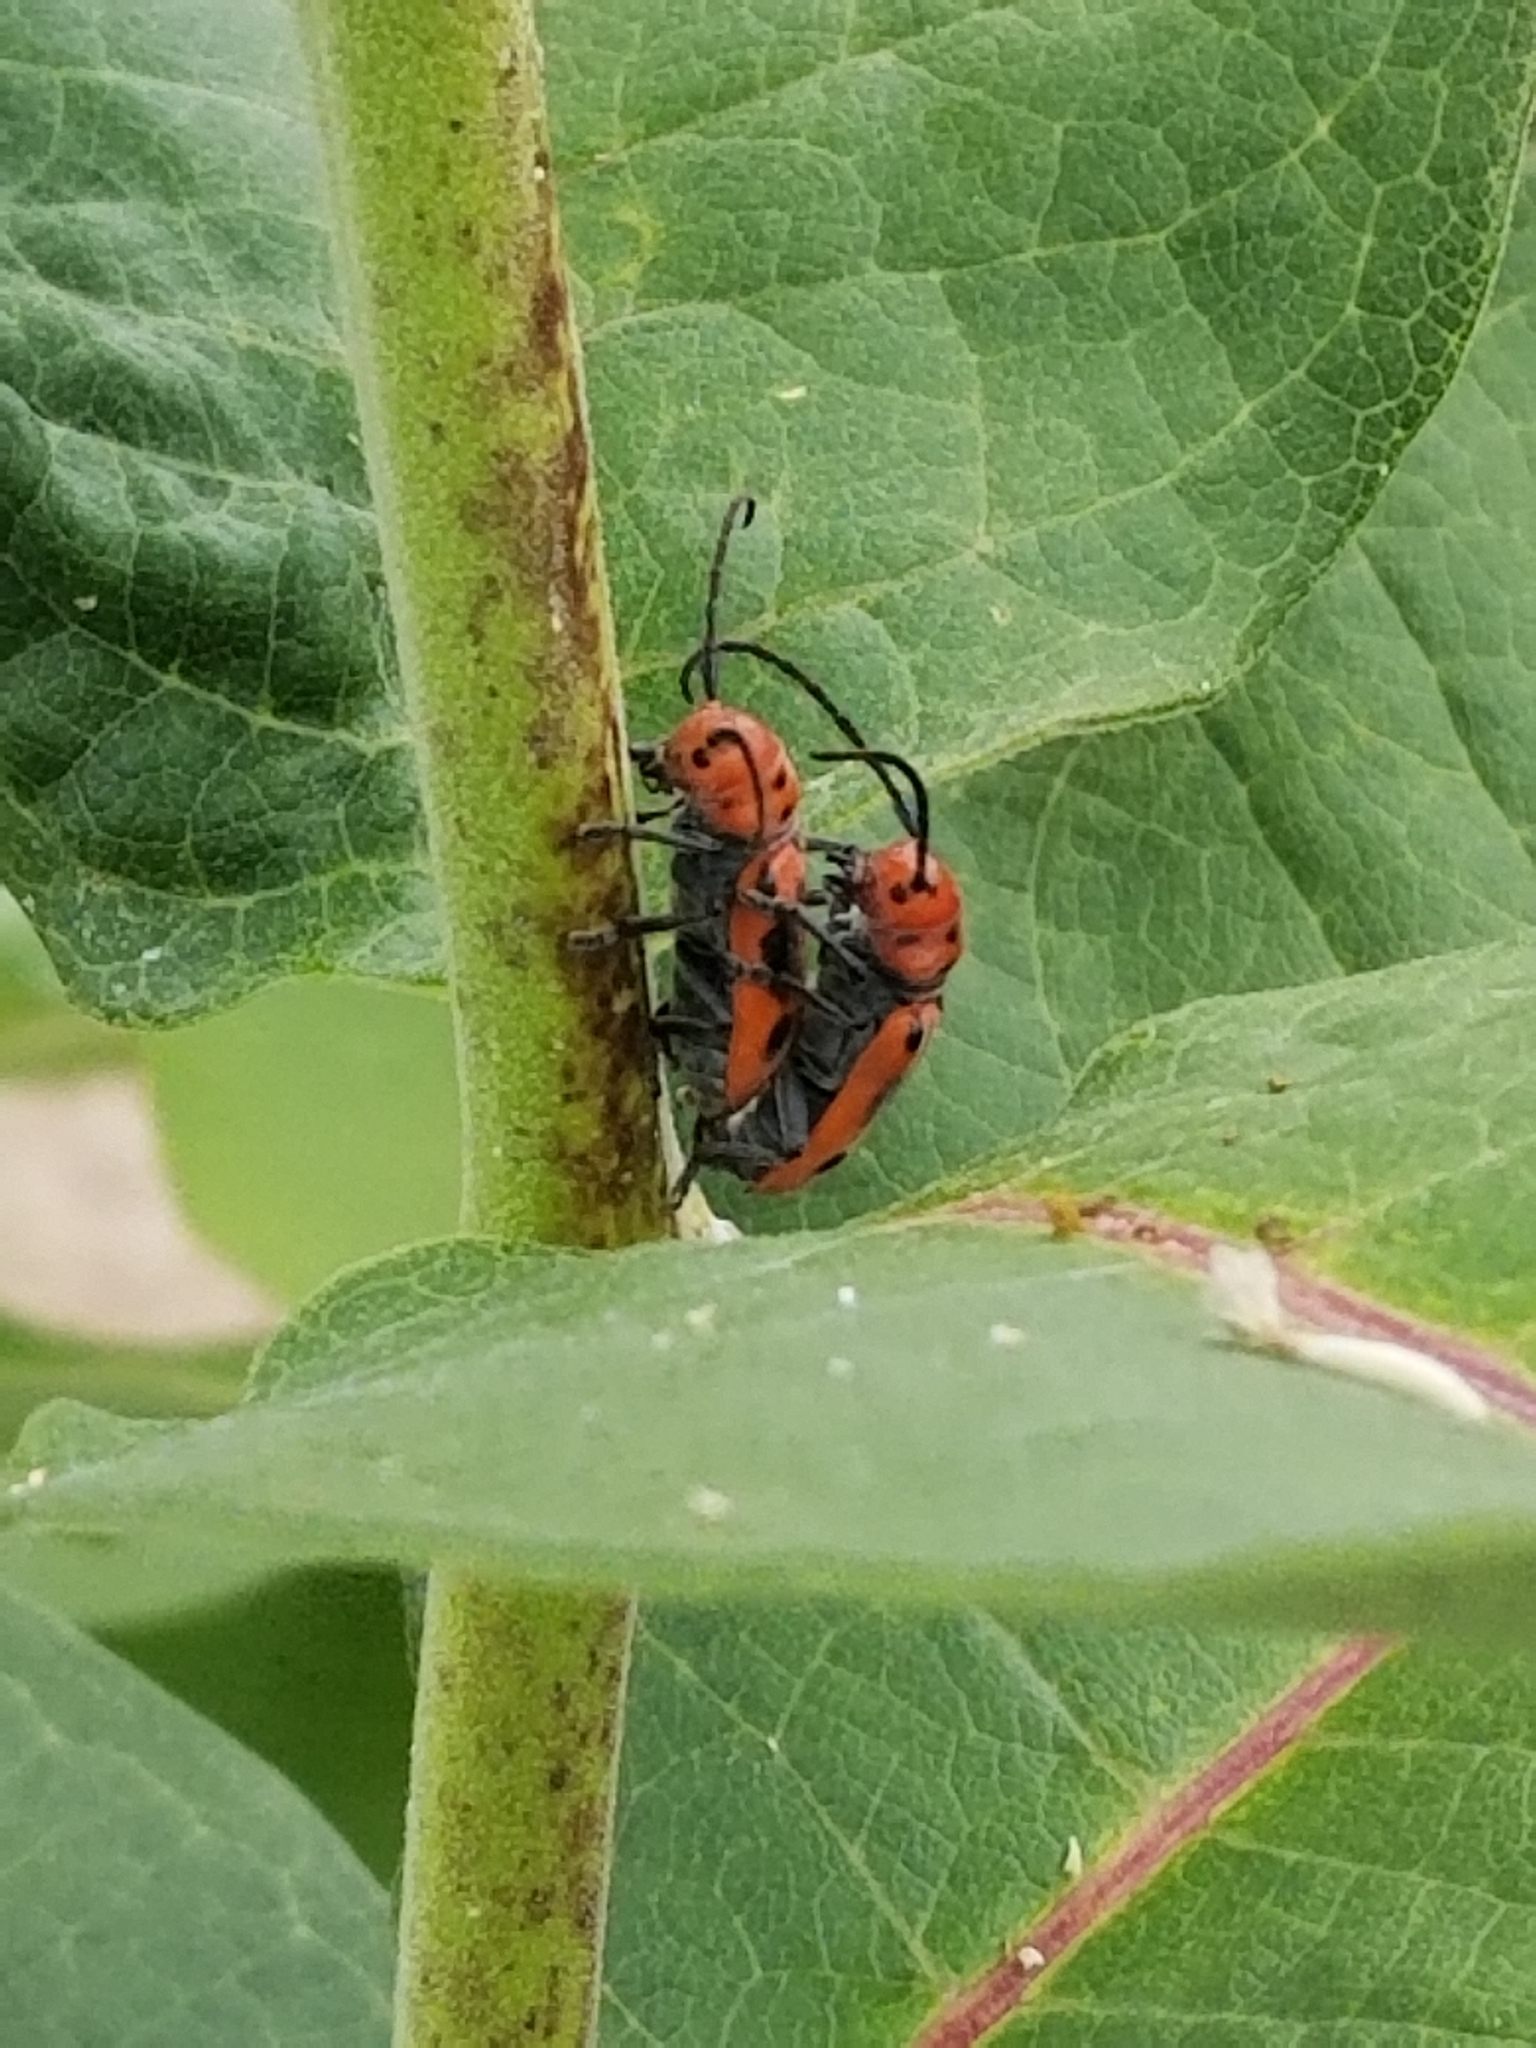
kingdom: Animalia
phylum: Arthropoda
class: Insecta
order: Coleoptera
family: Cerambycidae
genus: Tetraopes
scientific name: Tetraopes tetrophthalmus
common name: Red milkweed beetle
